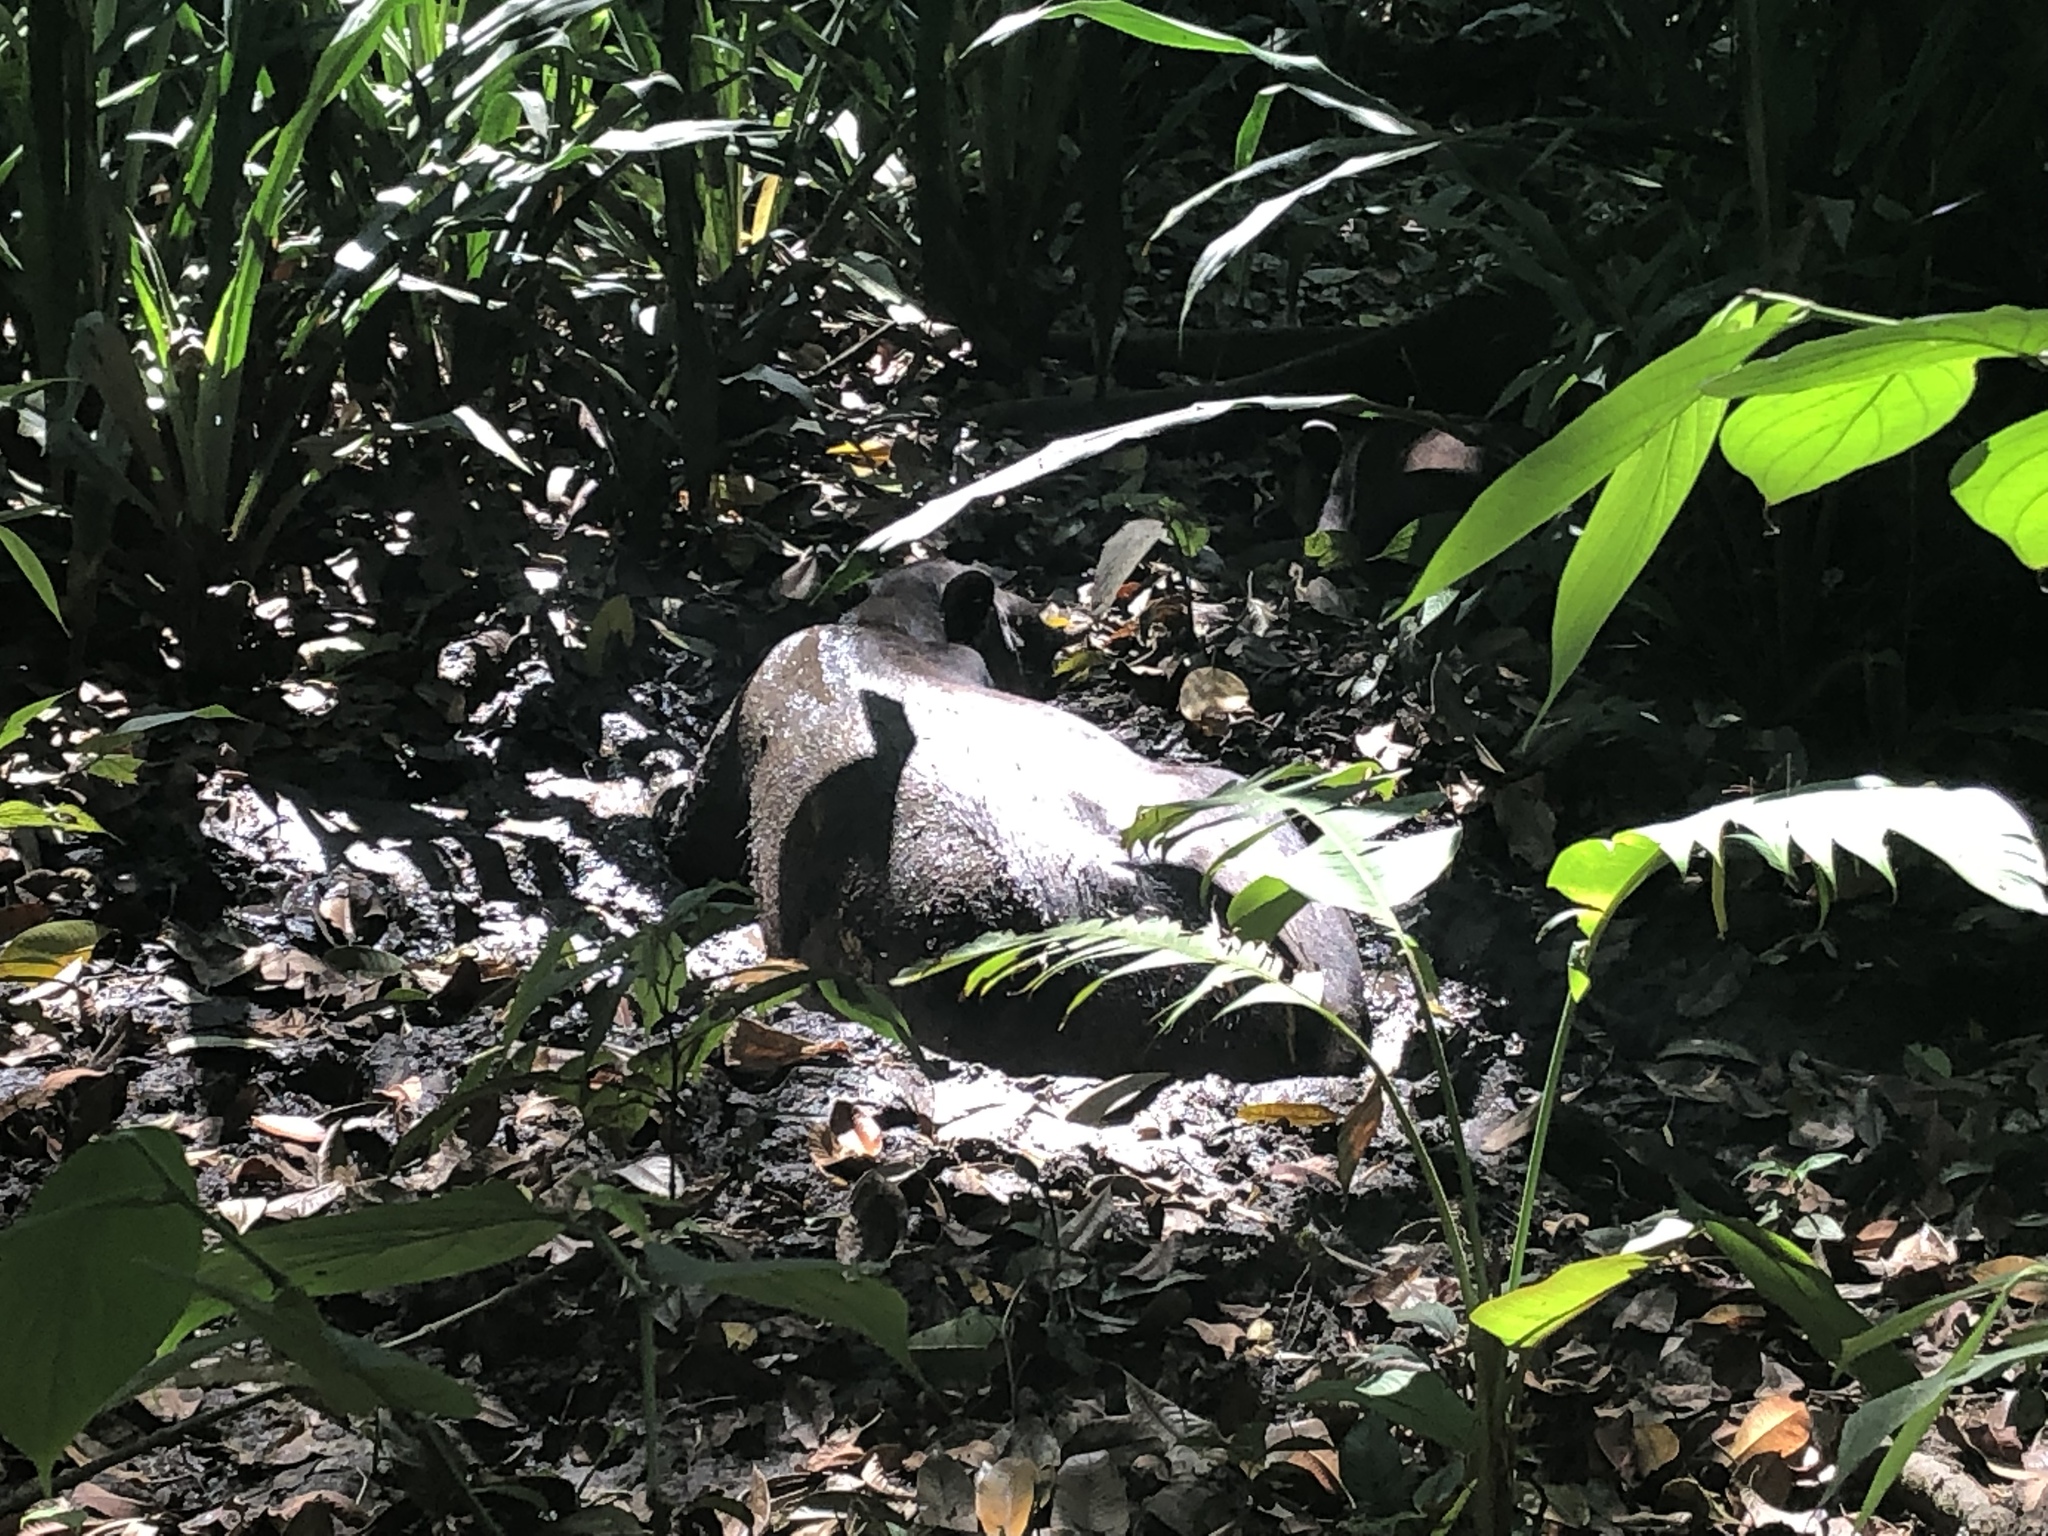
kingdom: Animalia
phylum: Chordata
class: Mammalia
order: Perissodactyla
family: Tapiridae
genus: Tapirella
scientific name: Tapirella bairdii
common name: Baird's tapir
